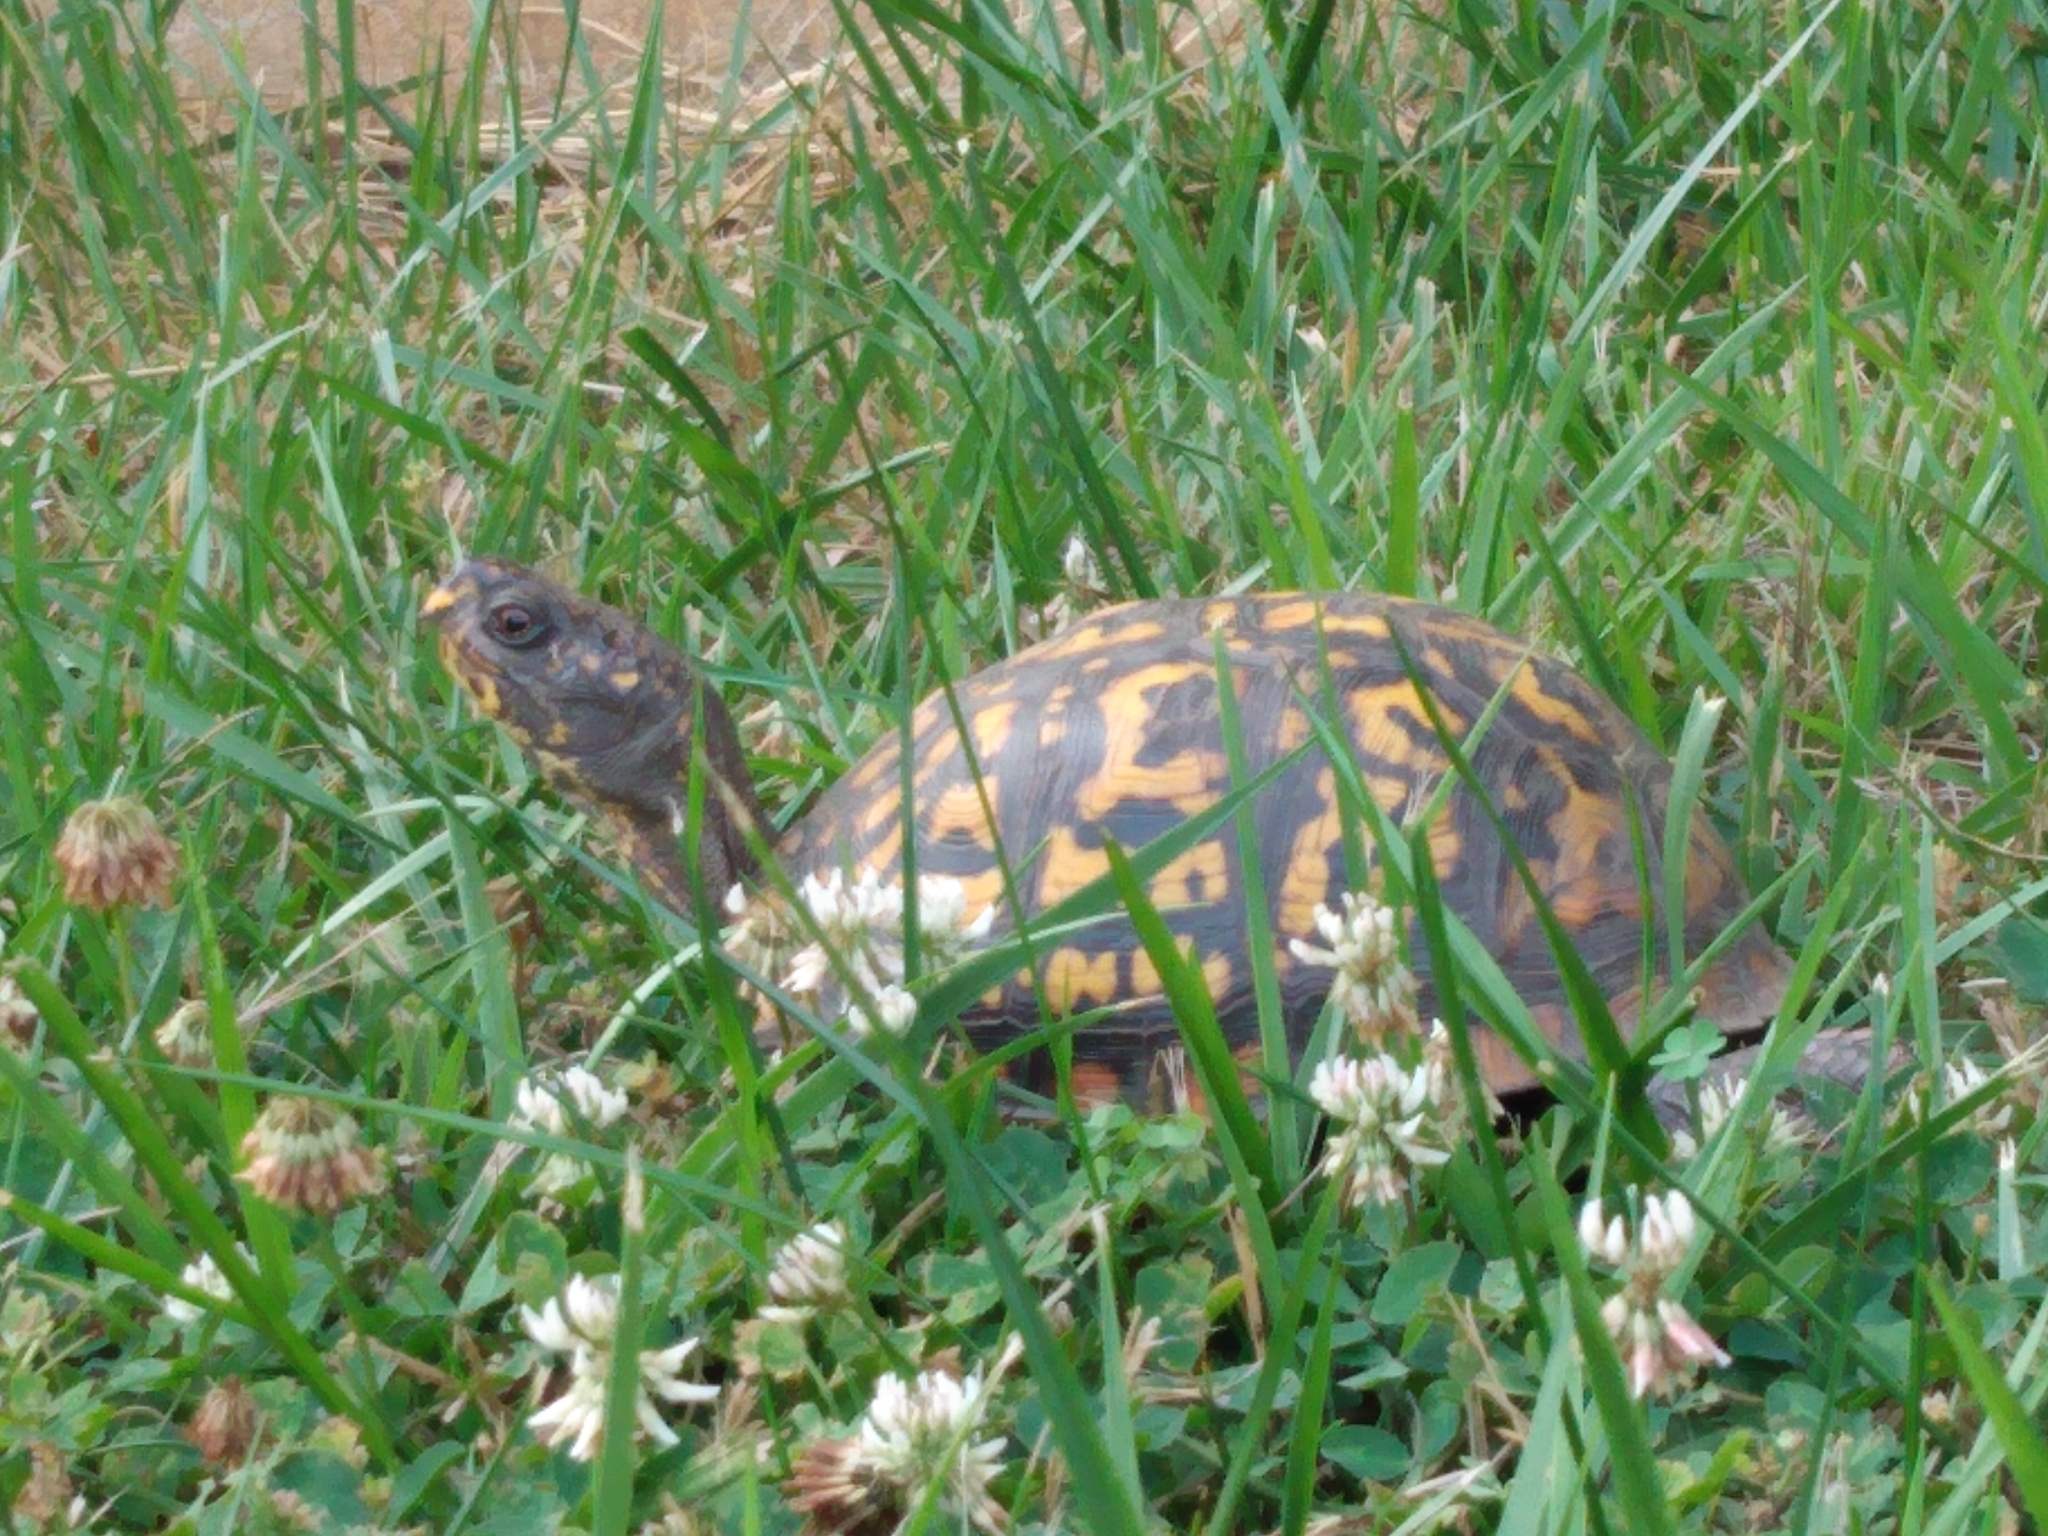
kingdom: Animalia
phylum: Chordata
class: Testudines
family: Emydidae
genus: Terrapene
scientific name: Terrapene carolina
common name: Common box turtle
